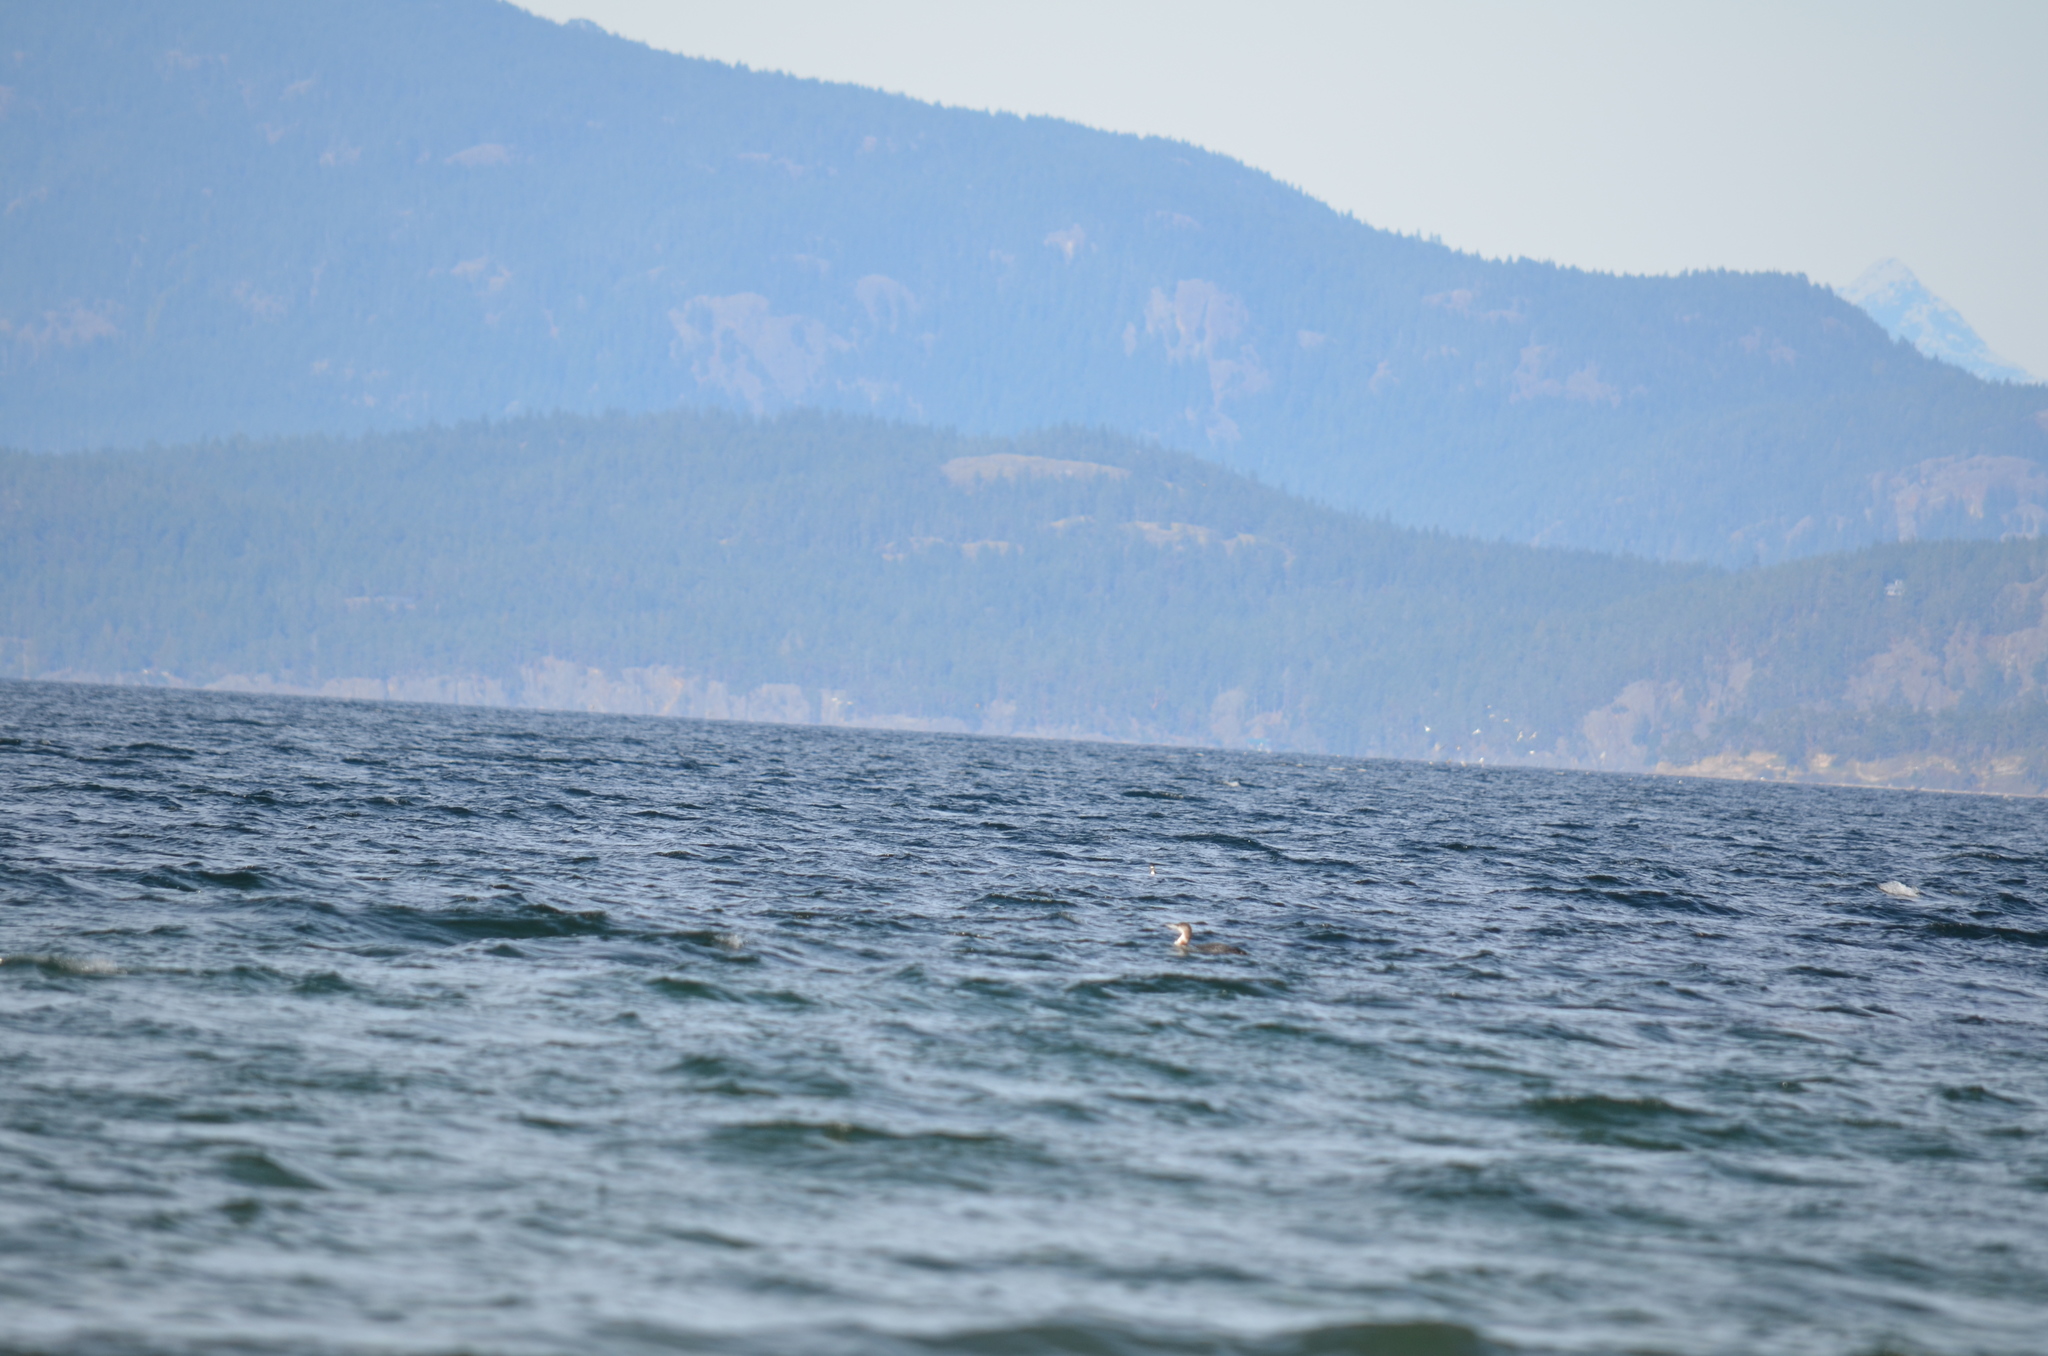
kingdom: Animalia
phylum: Chordata
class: Aves
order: Gaviiformes
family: Gaviidae
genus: Gavia
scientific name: Gavia immer
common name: Common loon
